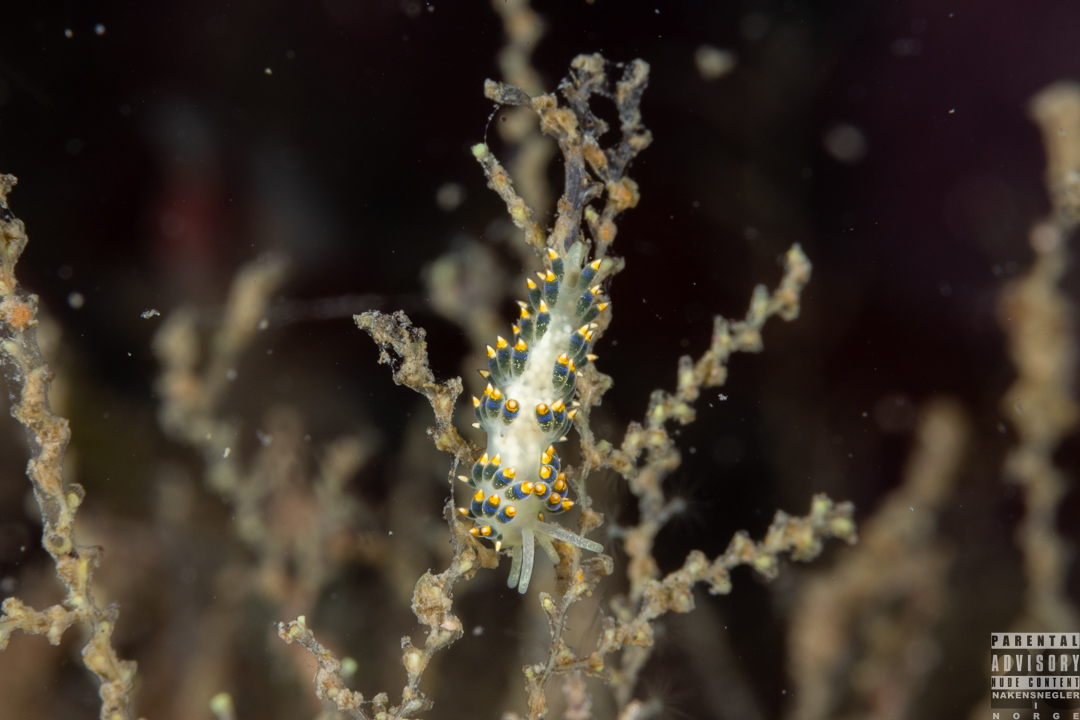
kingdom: Animalia
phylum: Mollusca
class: Gastropoda
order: Nudibranchia
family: Trinchesiidae
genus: Trinchesia
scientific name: Trinchesia cuanensis
